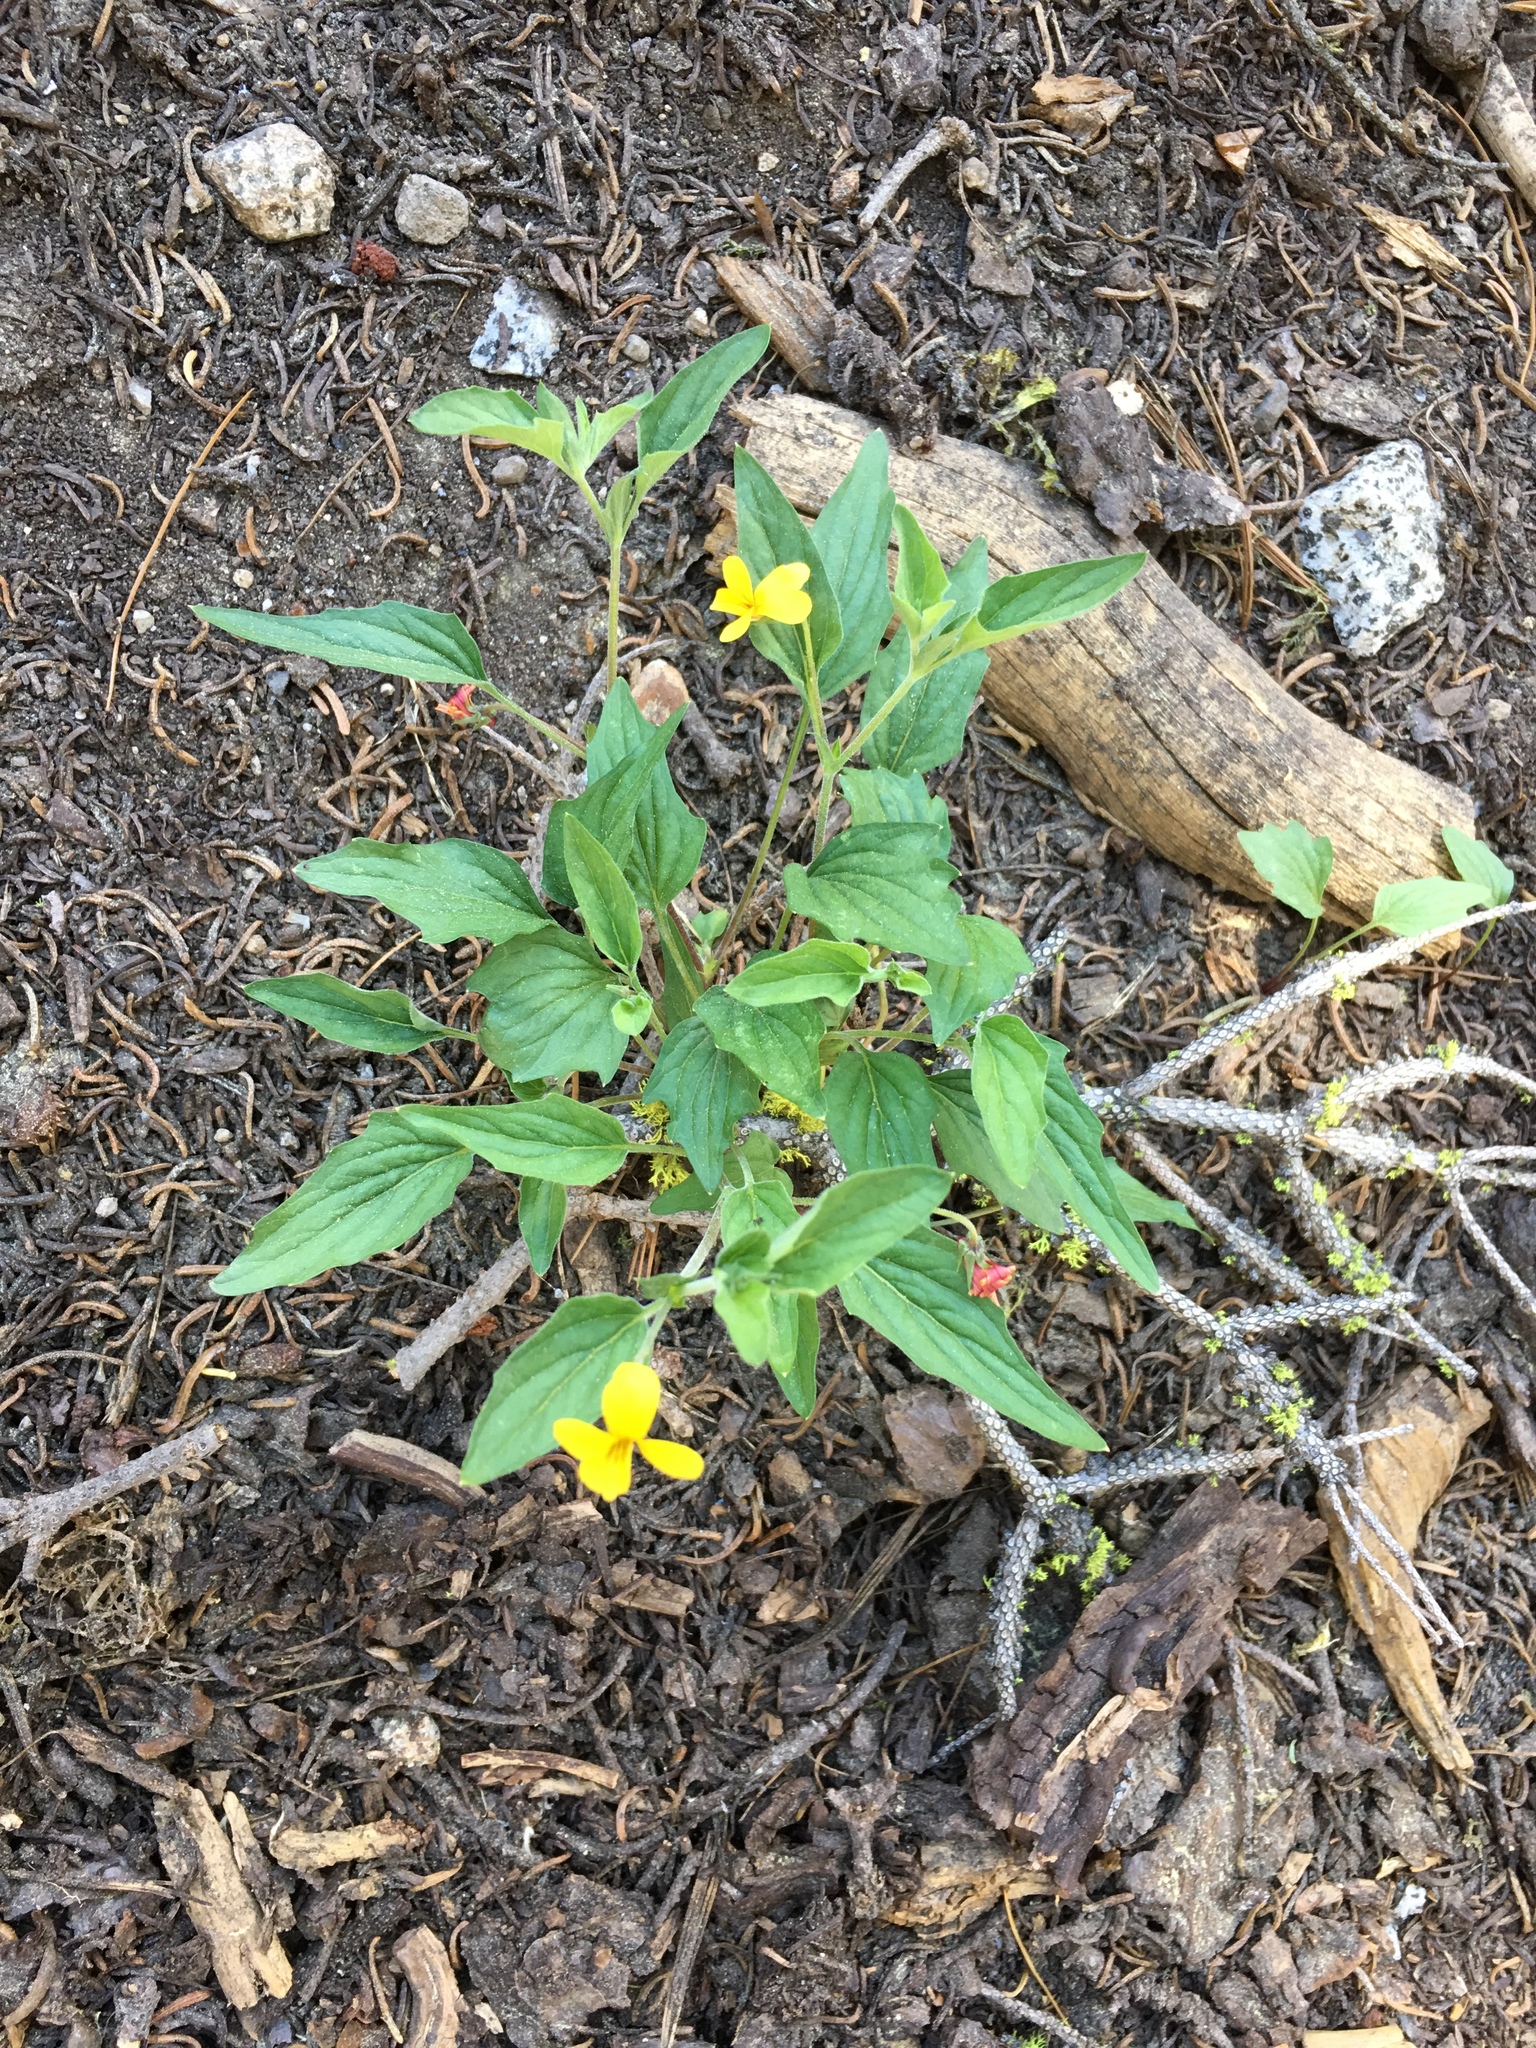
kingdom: Plantae
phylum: Tracheophyta
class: Magnoliopsida
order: Malpighiales
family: Violaceae
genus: Viola
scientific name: Viola pinetorum
